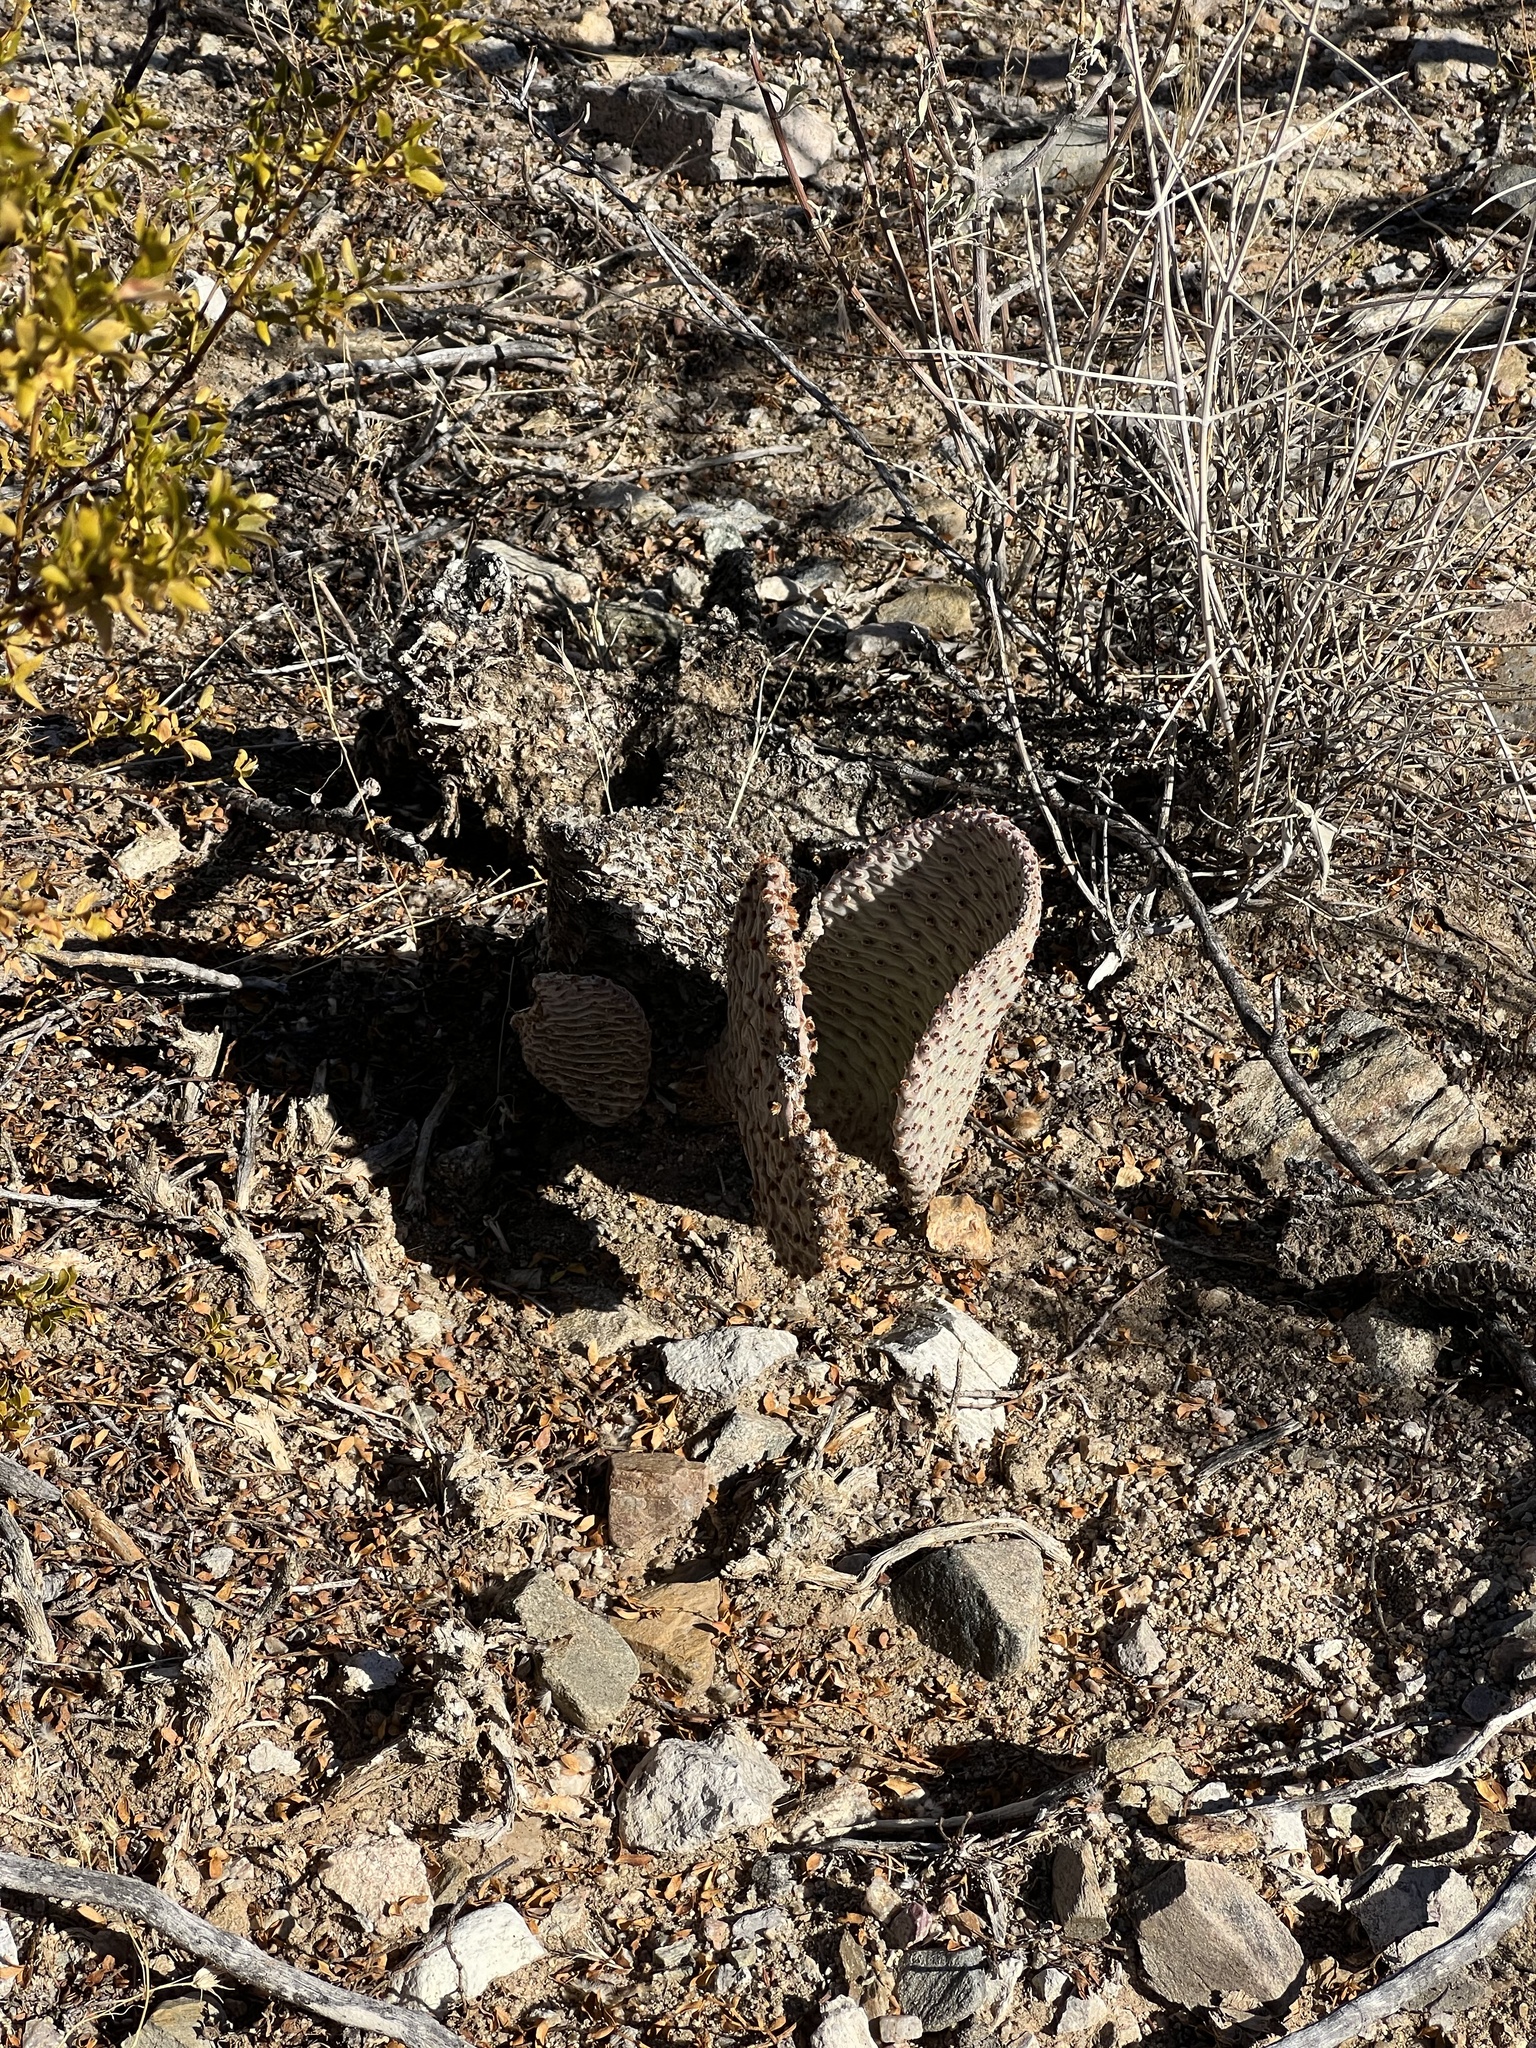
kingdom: Plantae
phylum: Tracheophyta
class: Magnoliopsida
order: Caryophyllales
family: Cactaceae
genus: Opuntia
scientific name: Opuntia basilaris
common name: Beavertail prickly-pear
